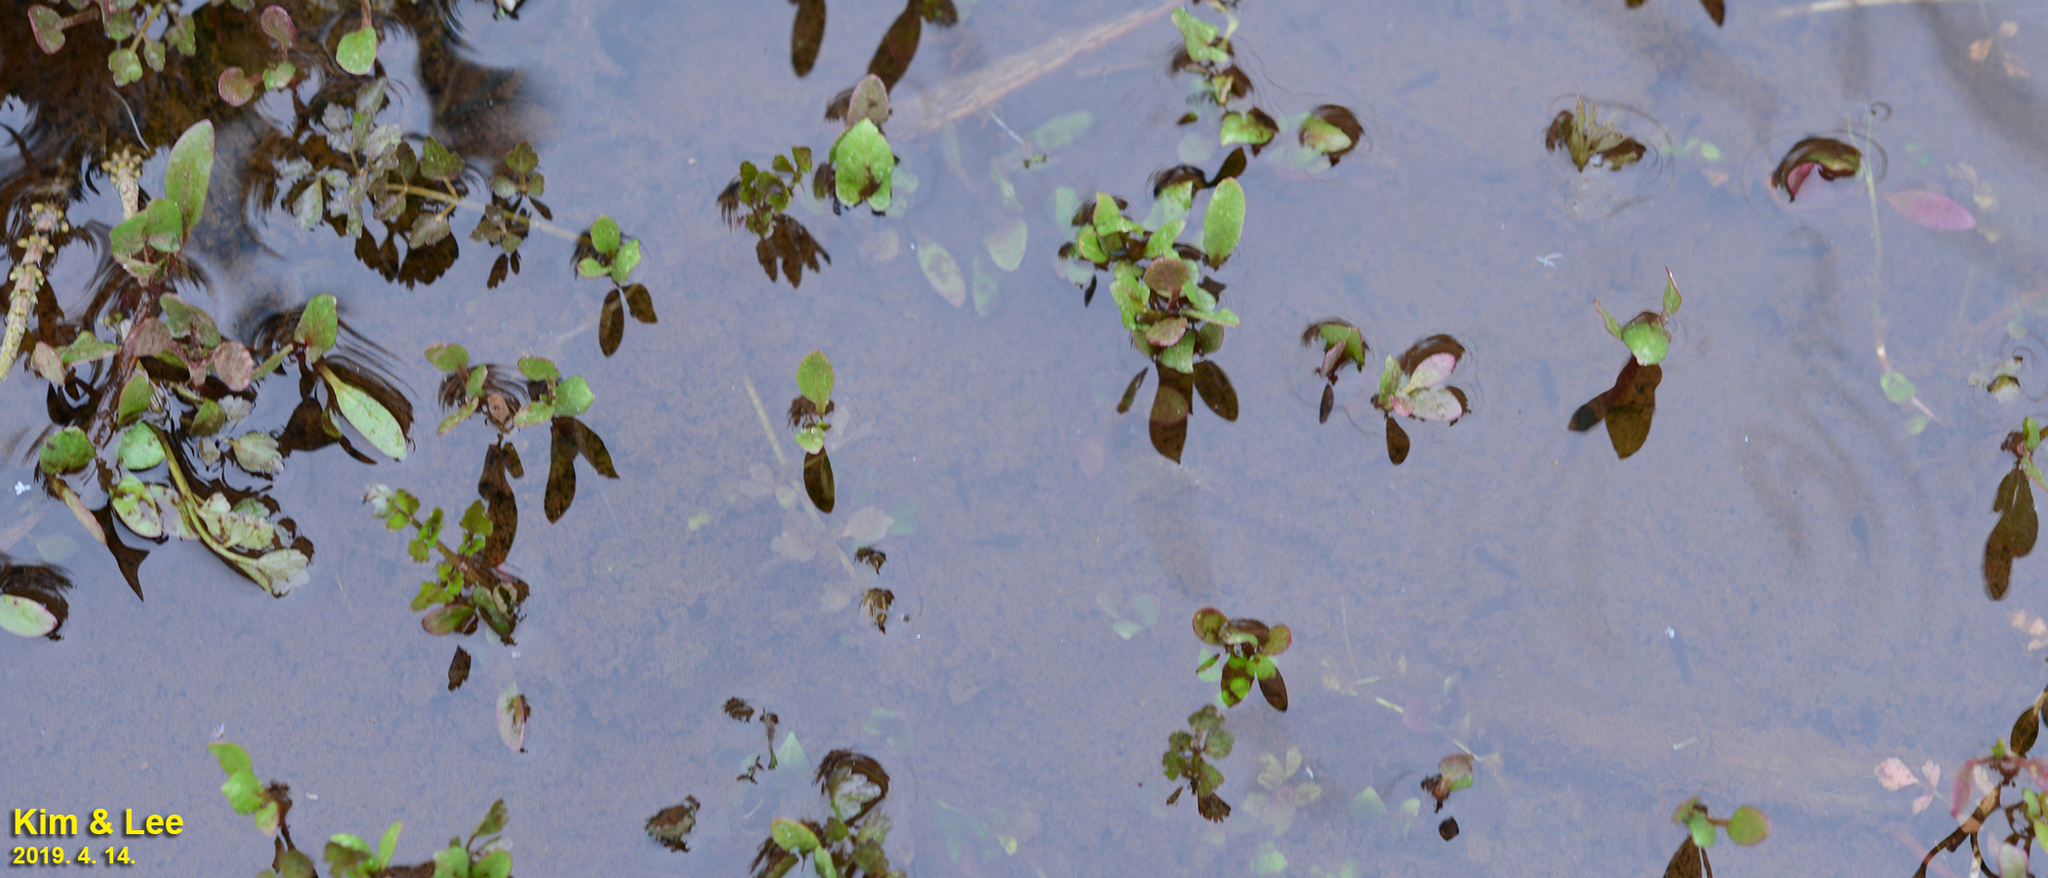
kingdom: Animalia
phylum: Chordata
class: Amphibia
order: Anura
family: Ranidae
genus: Rana
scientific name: Rana coreana
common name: Korean brown frog
